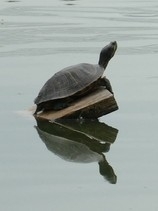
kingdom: Animalia
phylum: Chordata
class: Testudines
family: Emydidae
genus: Trachemys
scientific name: Trachemys scripta
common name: Slider
